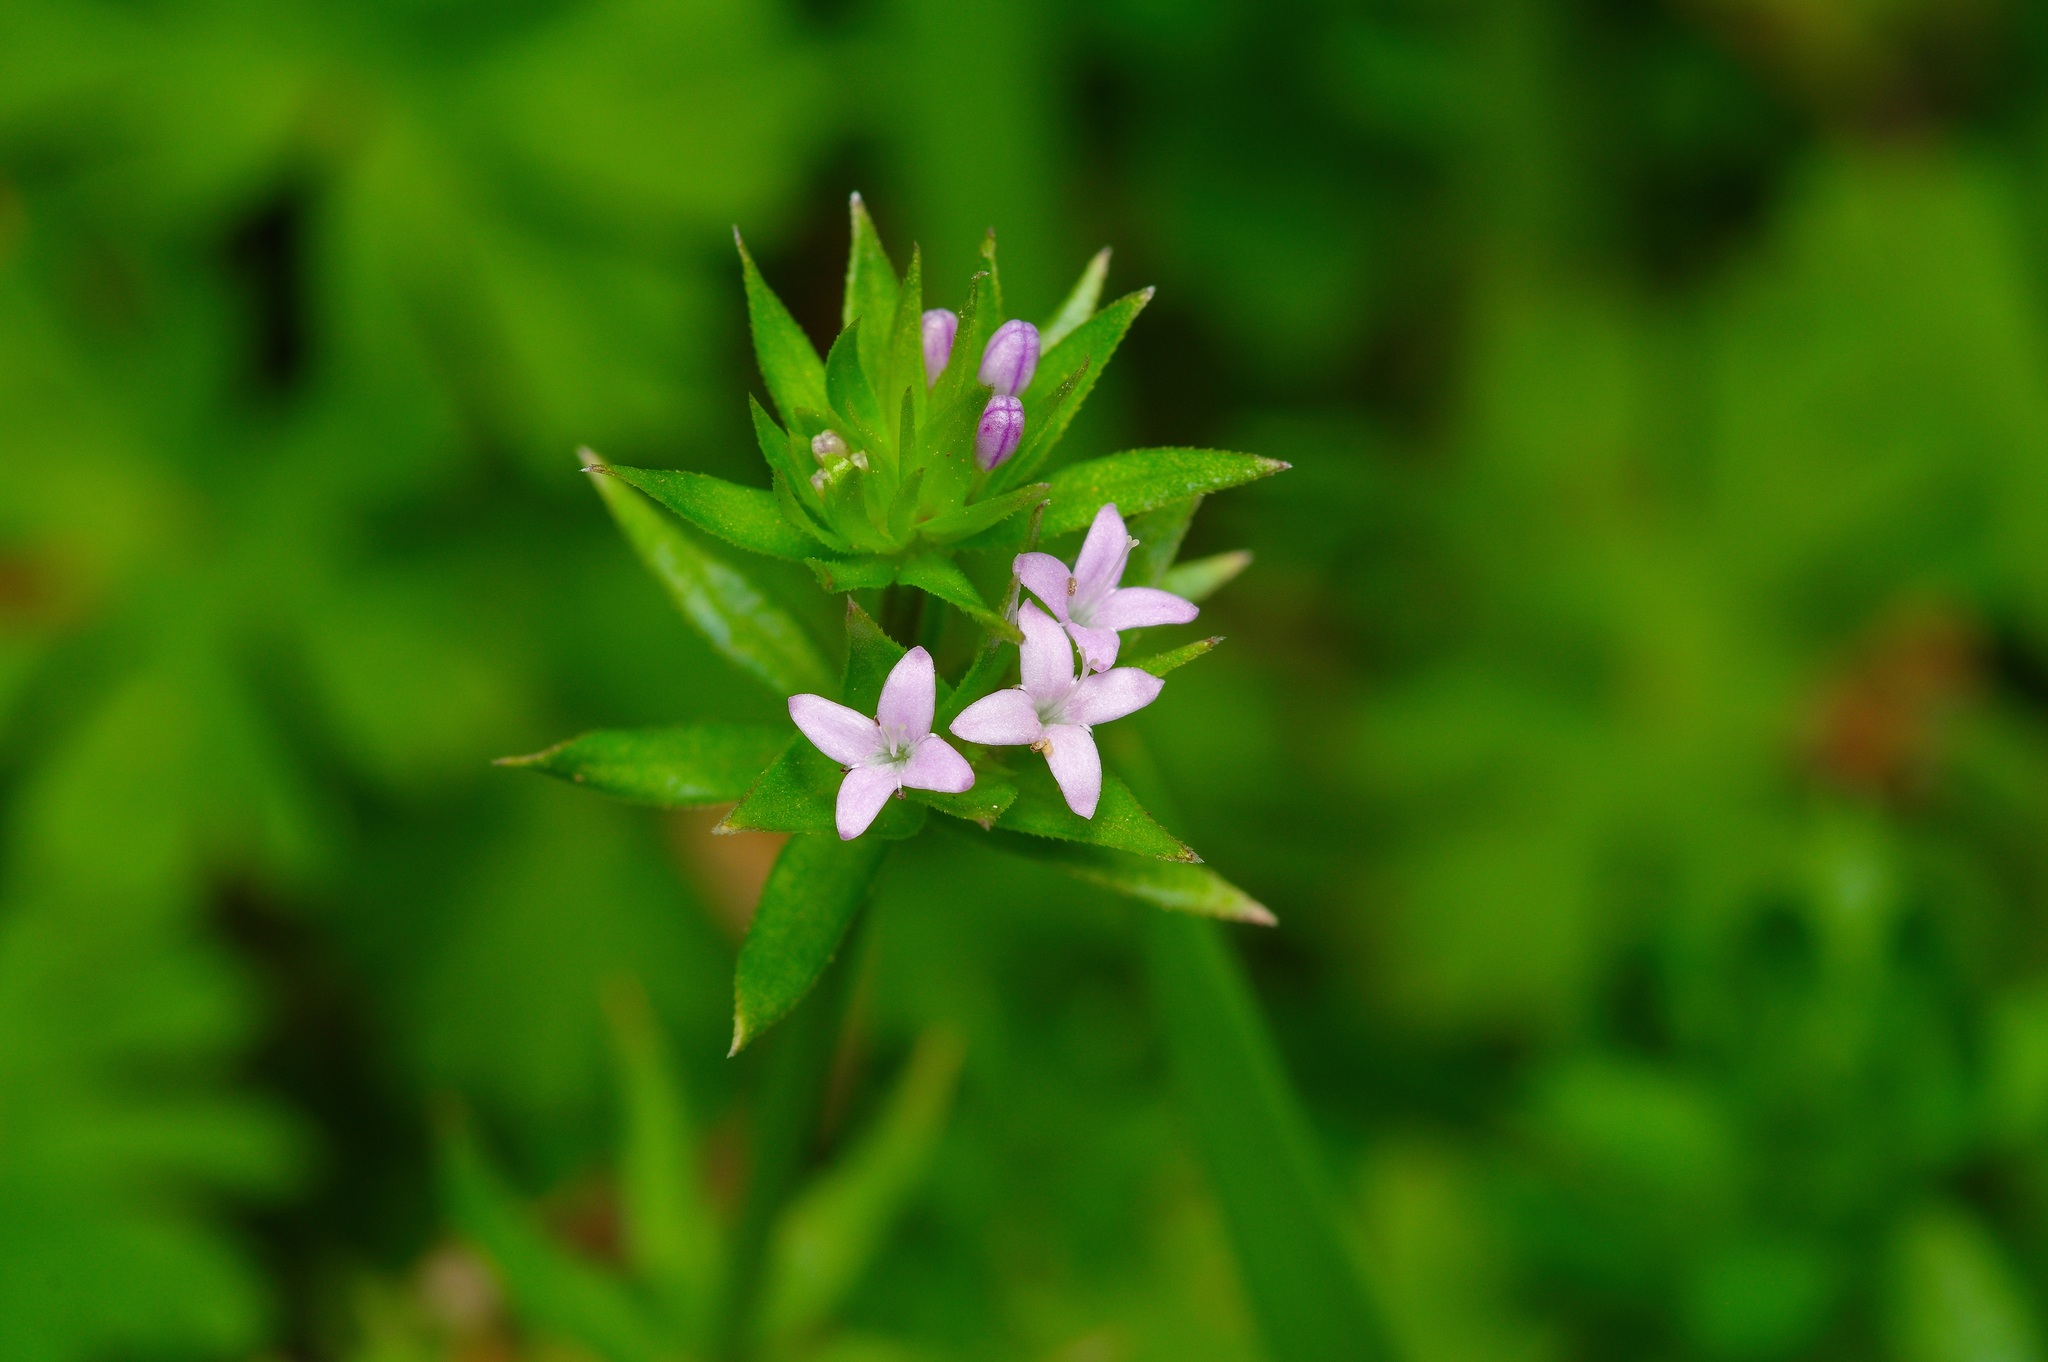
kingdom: Plantae
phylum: Tracheophyta
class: Magnoliopsida
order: Gentianales
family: Rubiaceae
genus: Sherardia
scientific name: Sherardia arvensis
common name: Field madder
